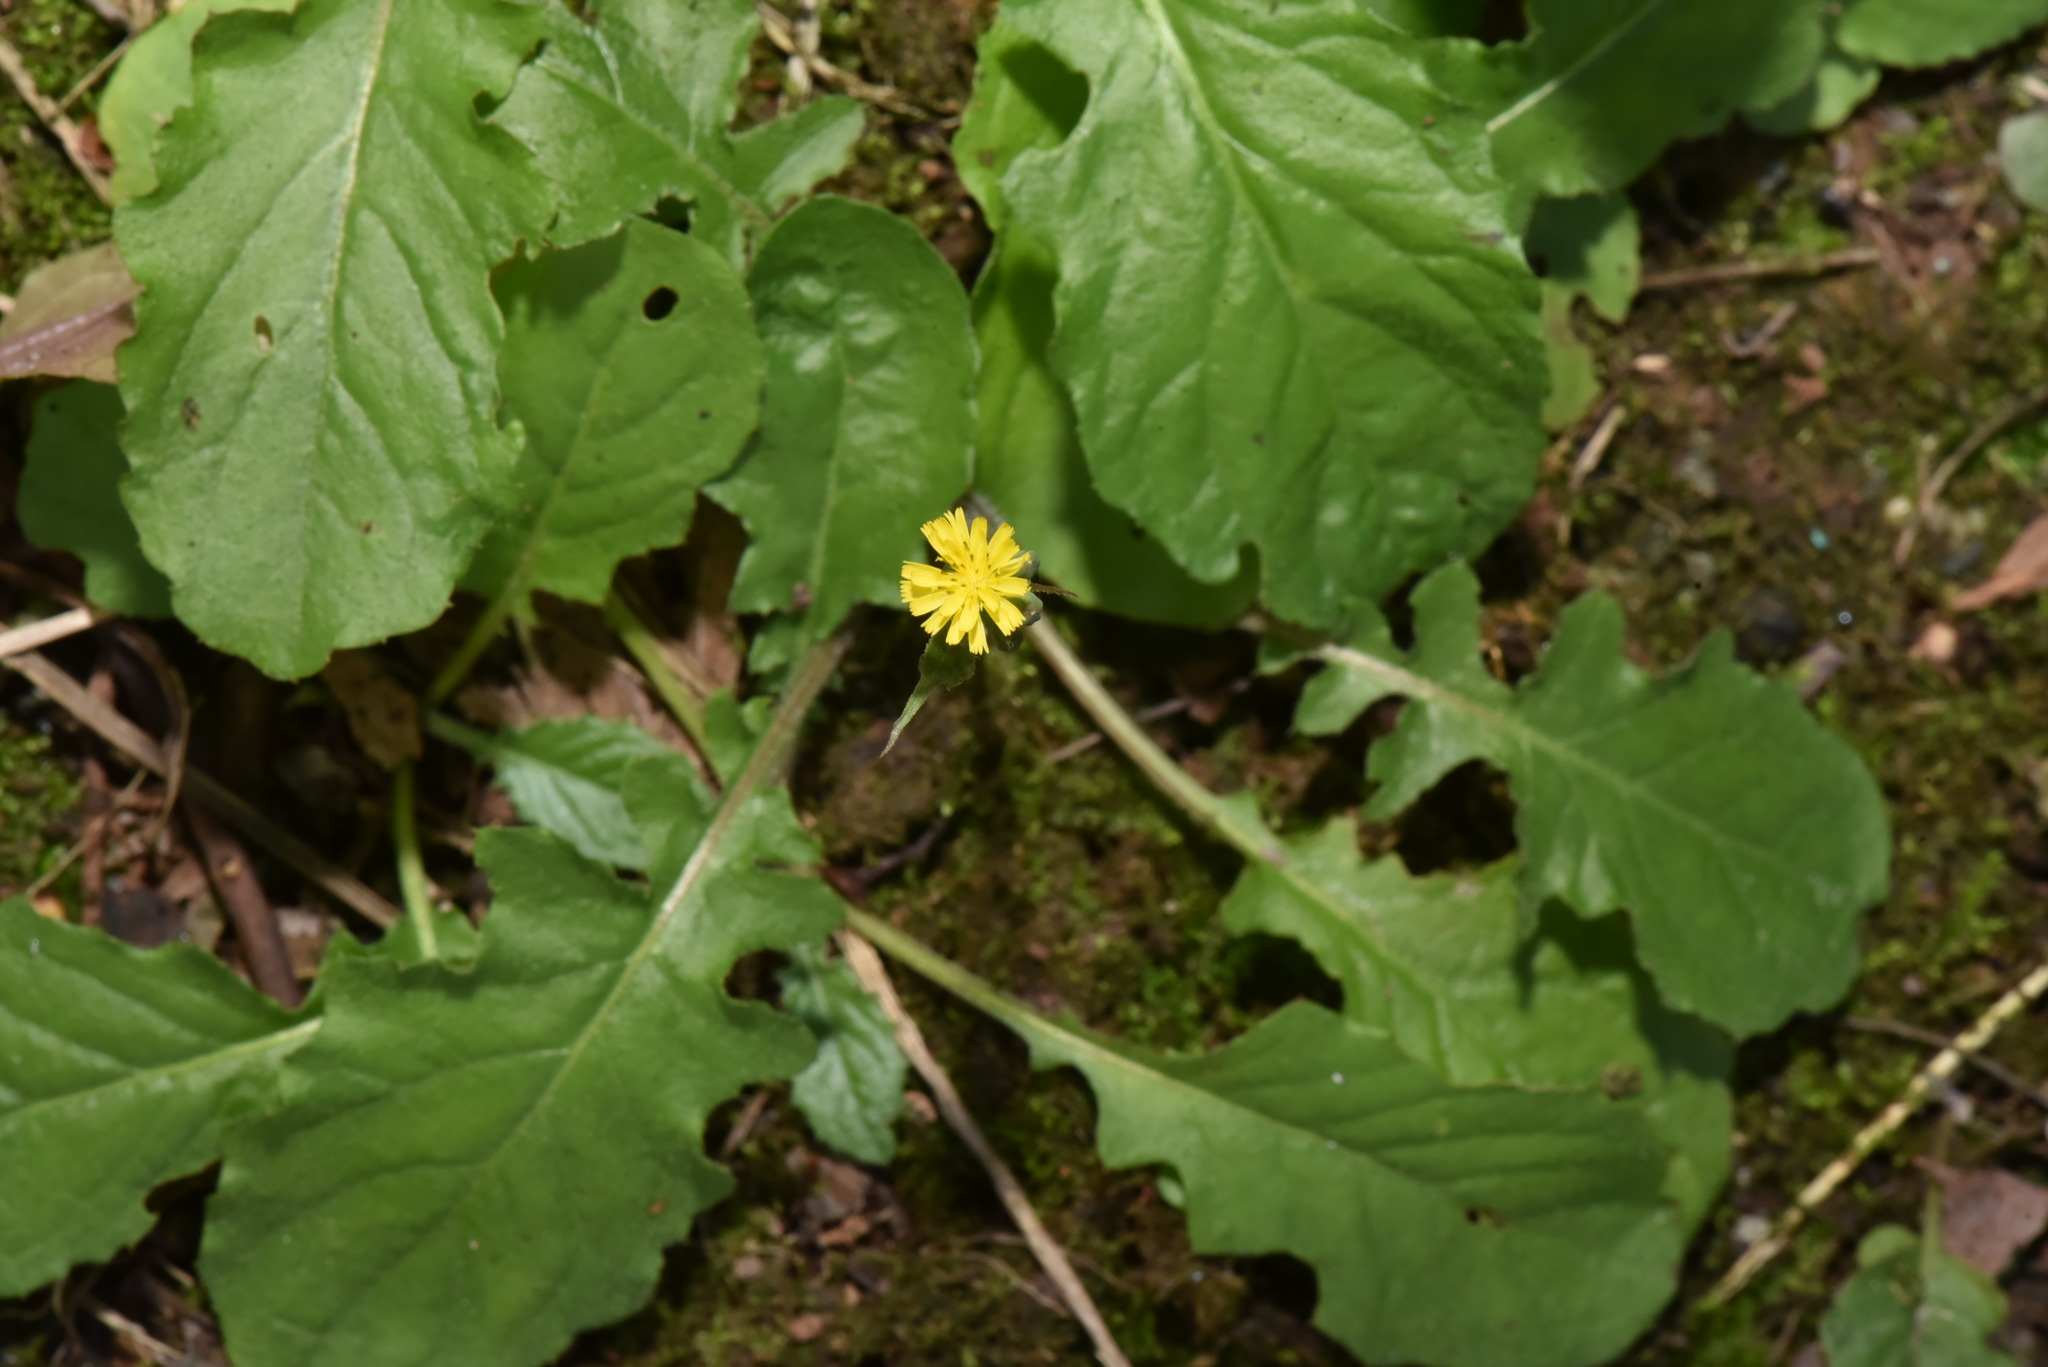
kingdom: Plantae
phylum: Tracheophyta
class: Magnoliopsida
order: Asterales
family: Asteraceae
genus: Youngia
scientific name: Youngia japonica
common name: Oriental false hawksbeard
